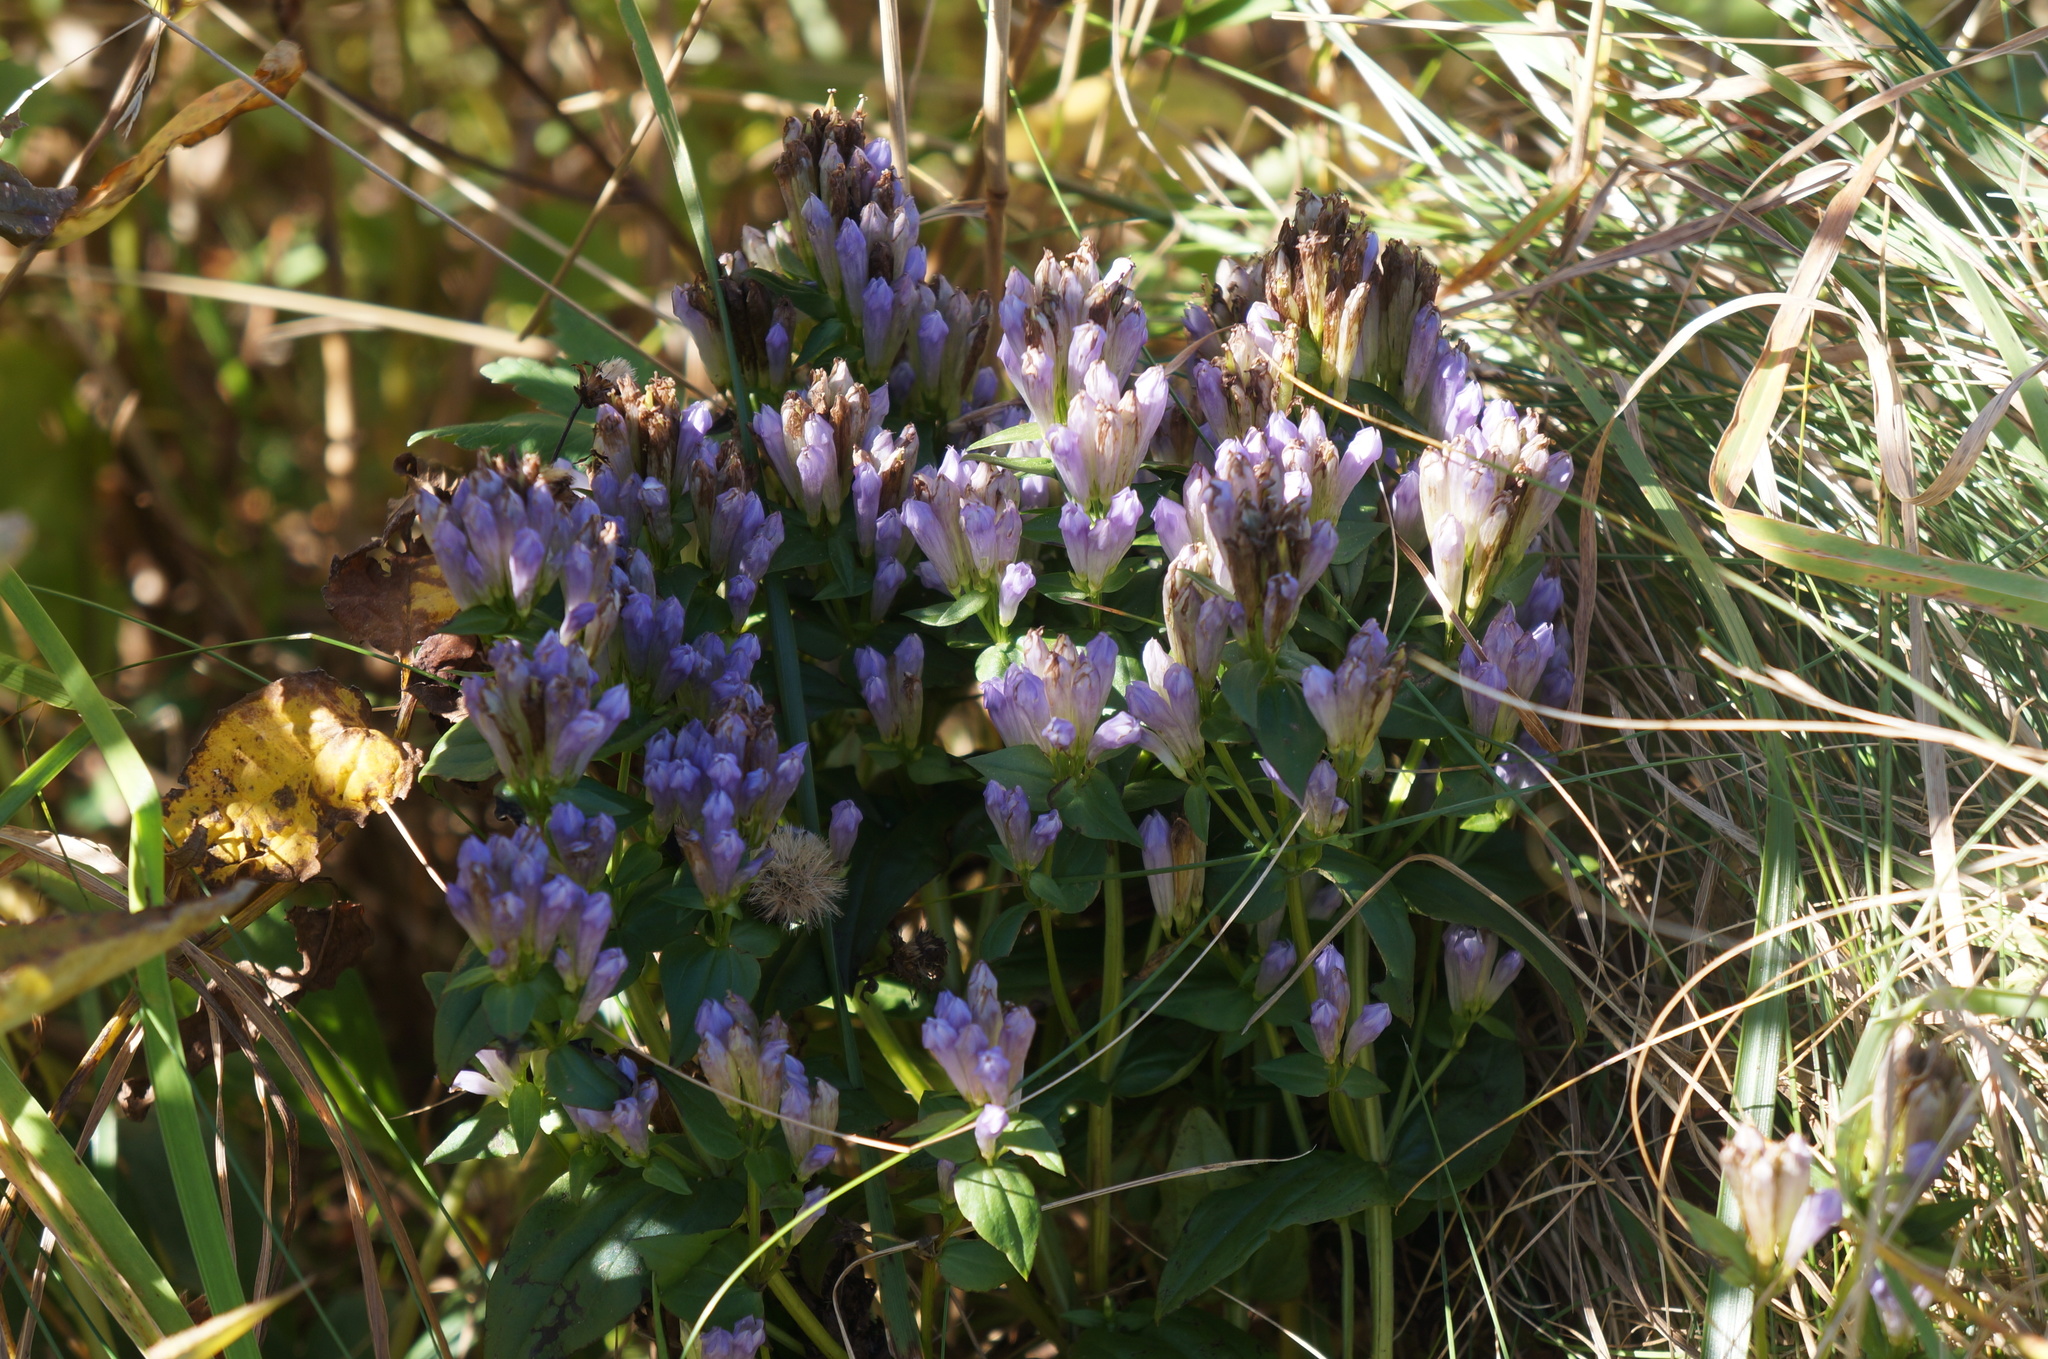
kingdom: Plantae
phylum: Tracheophyta
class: Magnoliopsida
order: Gentianales
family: Gentianaceae
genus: Gentianella
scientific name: Gentianella quinquefolia
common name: Agueweed
